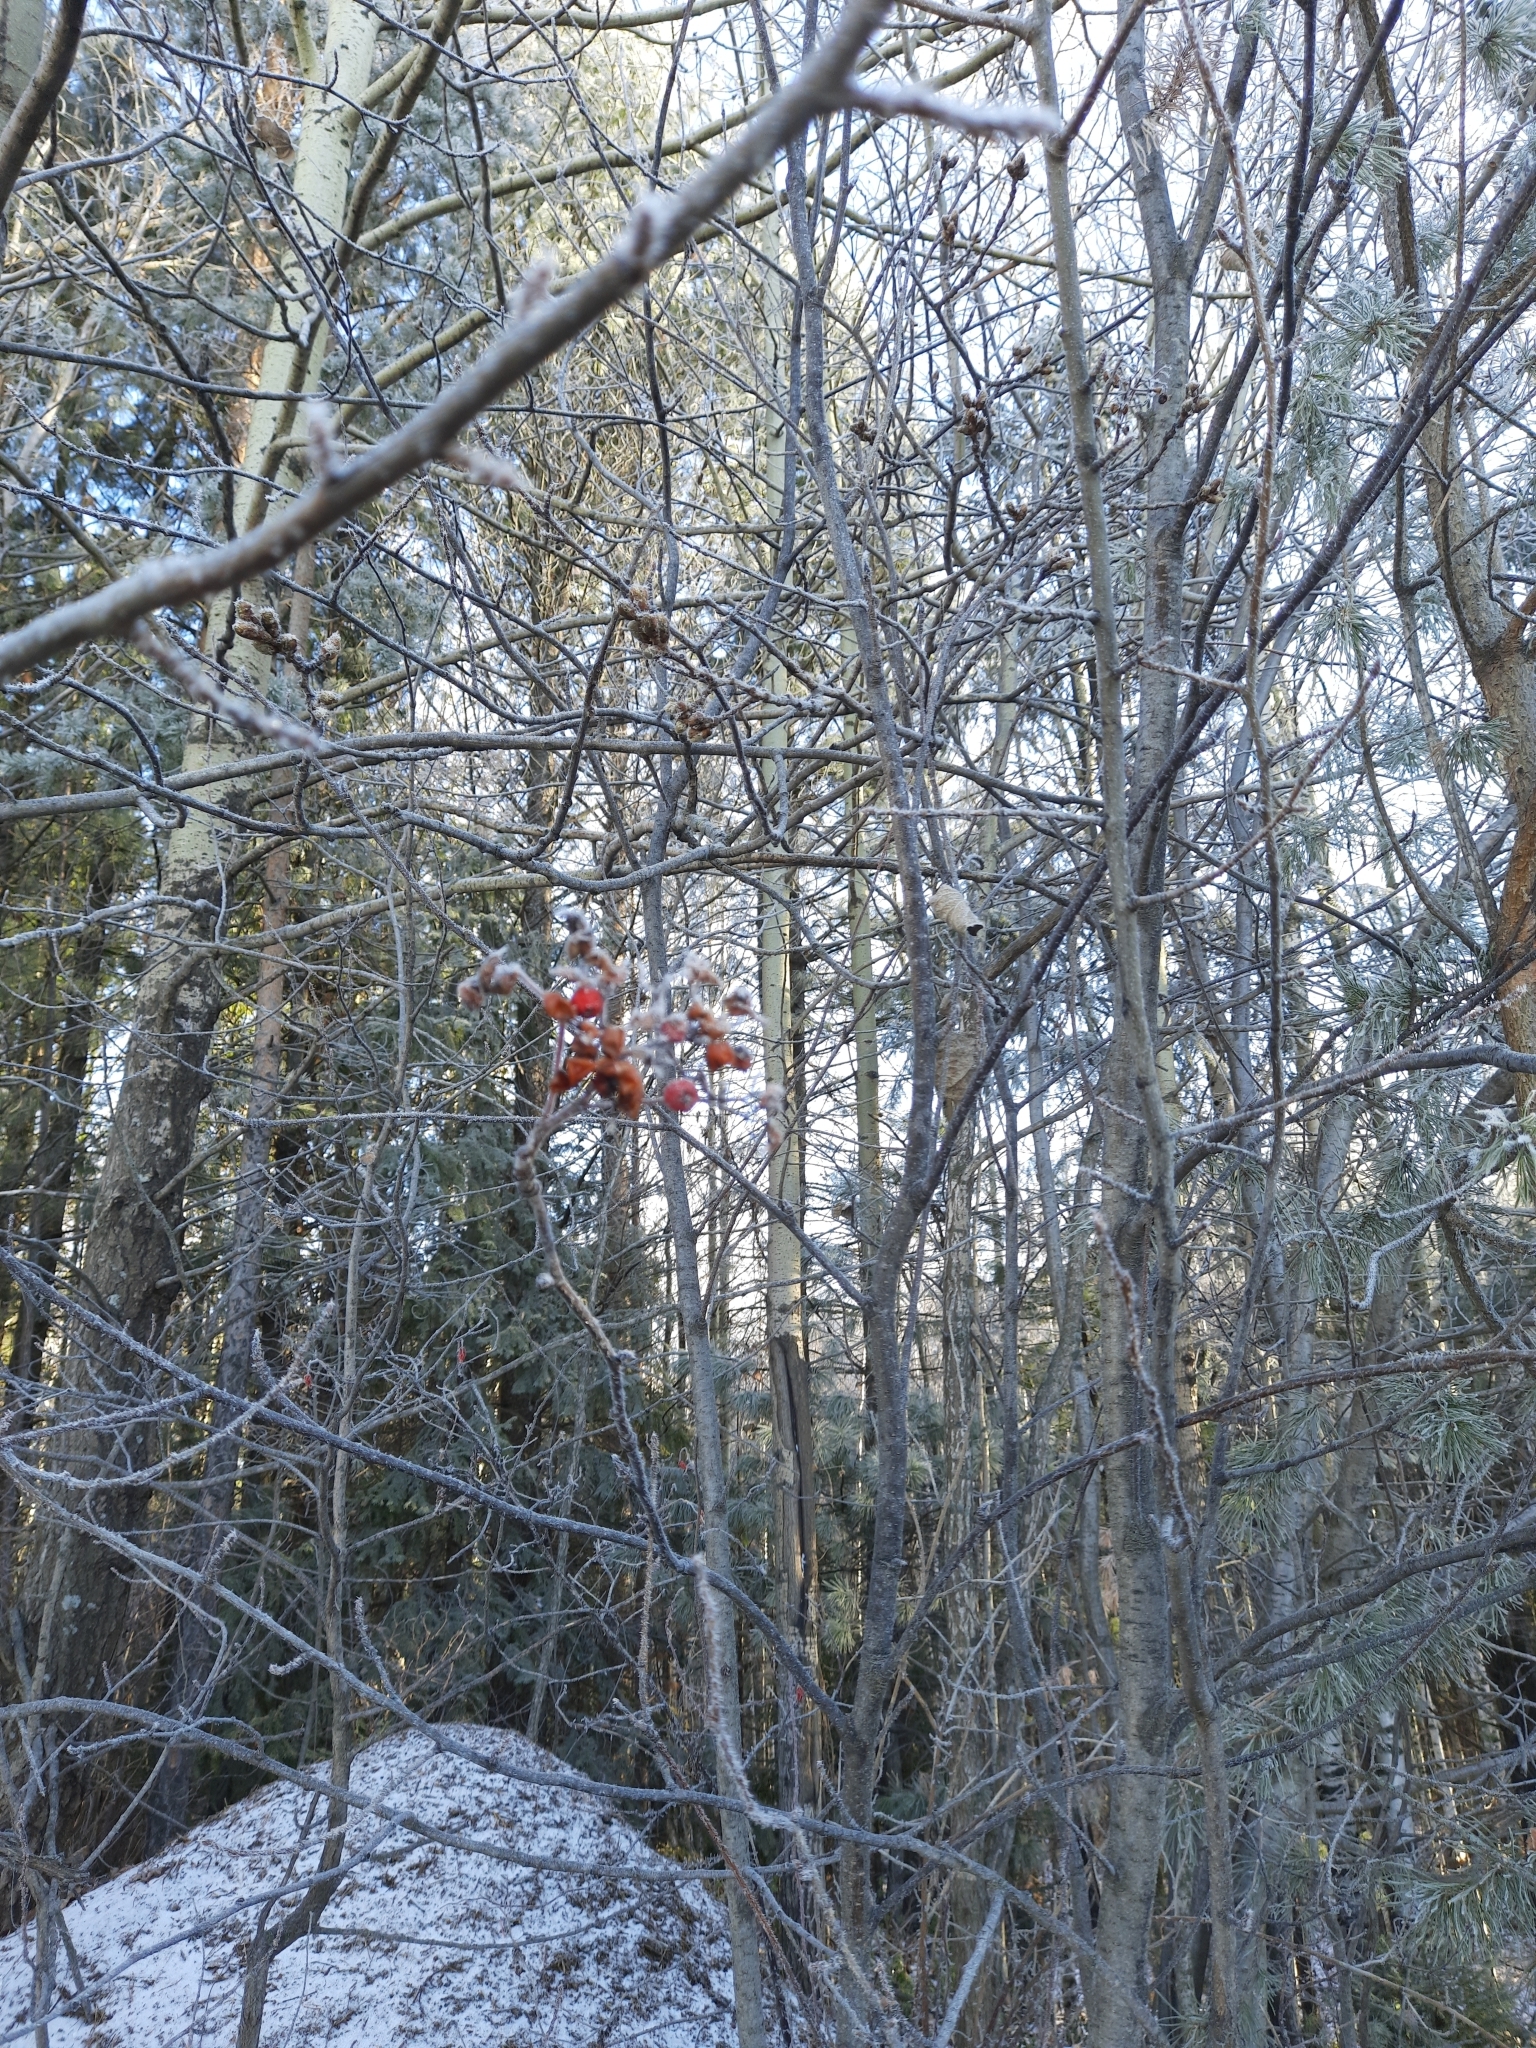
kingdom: Plantae
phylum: Tracheophyta
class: Magnoliopsida
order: Rosales
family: Rosaceae
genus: Sorbus
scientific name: Sorbus aucuparia
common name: Rowan
